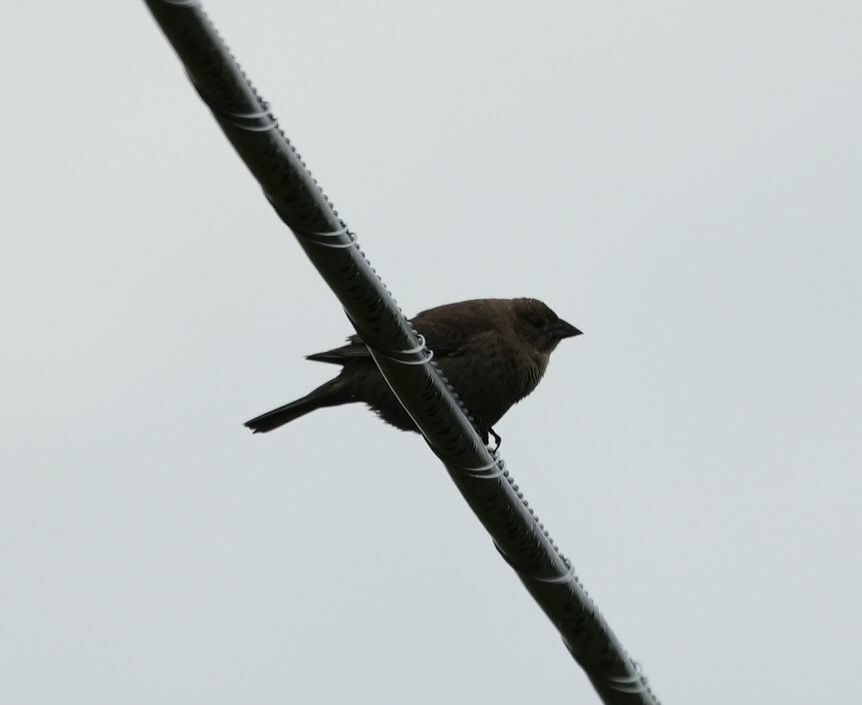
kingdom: Animalia
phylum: Chordata
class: Aves
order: Passeriformes
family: Icteridae
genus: Molothrus
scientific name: Molothrus ater
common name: Brown-headed cowbird
